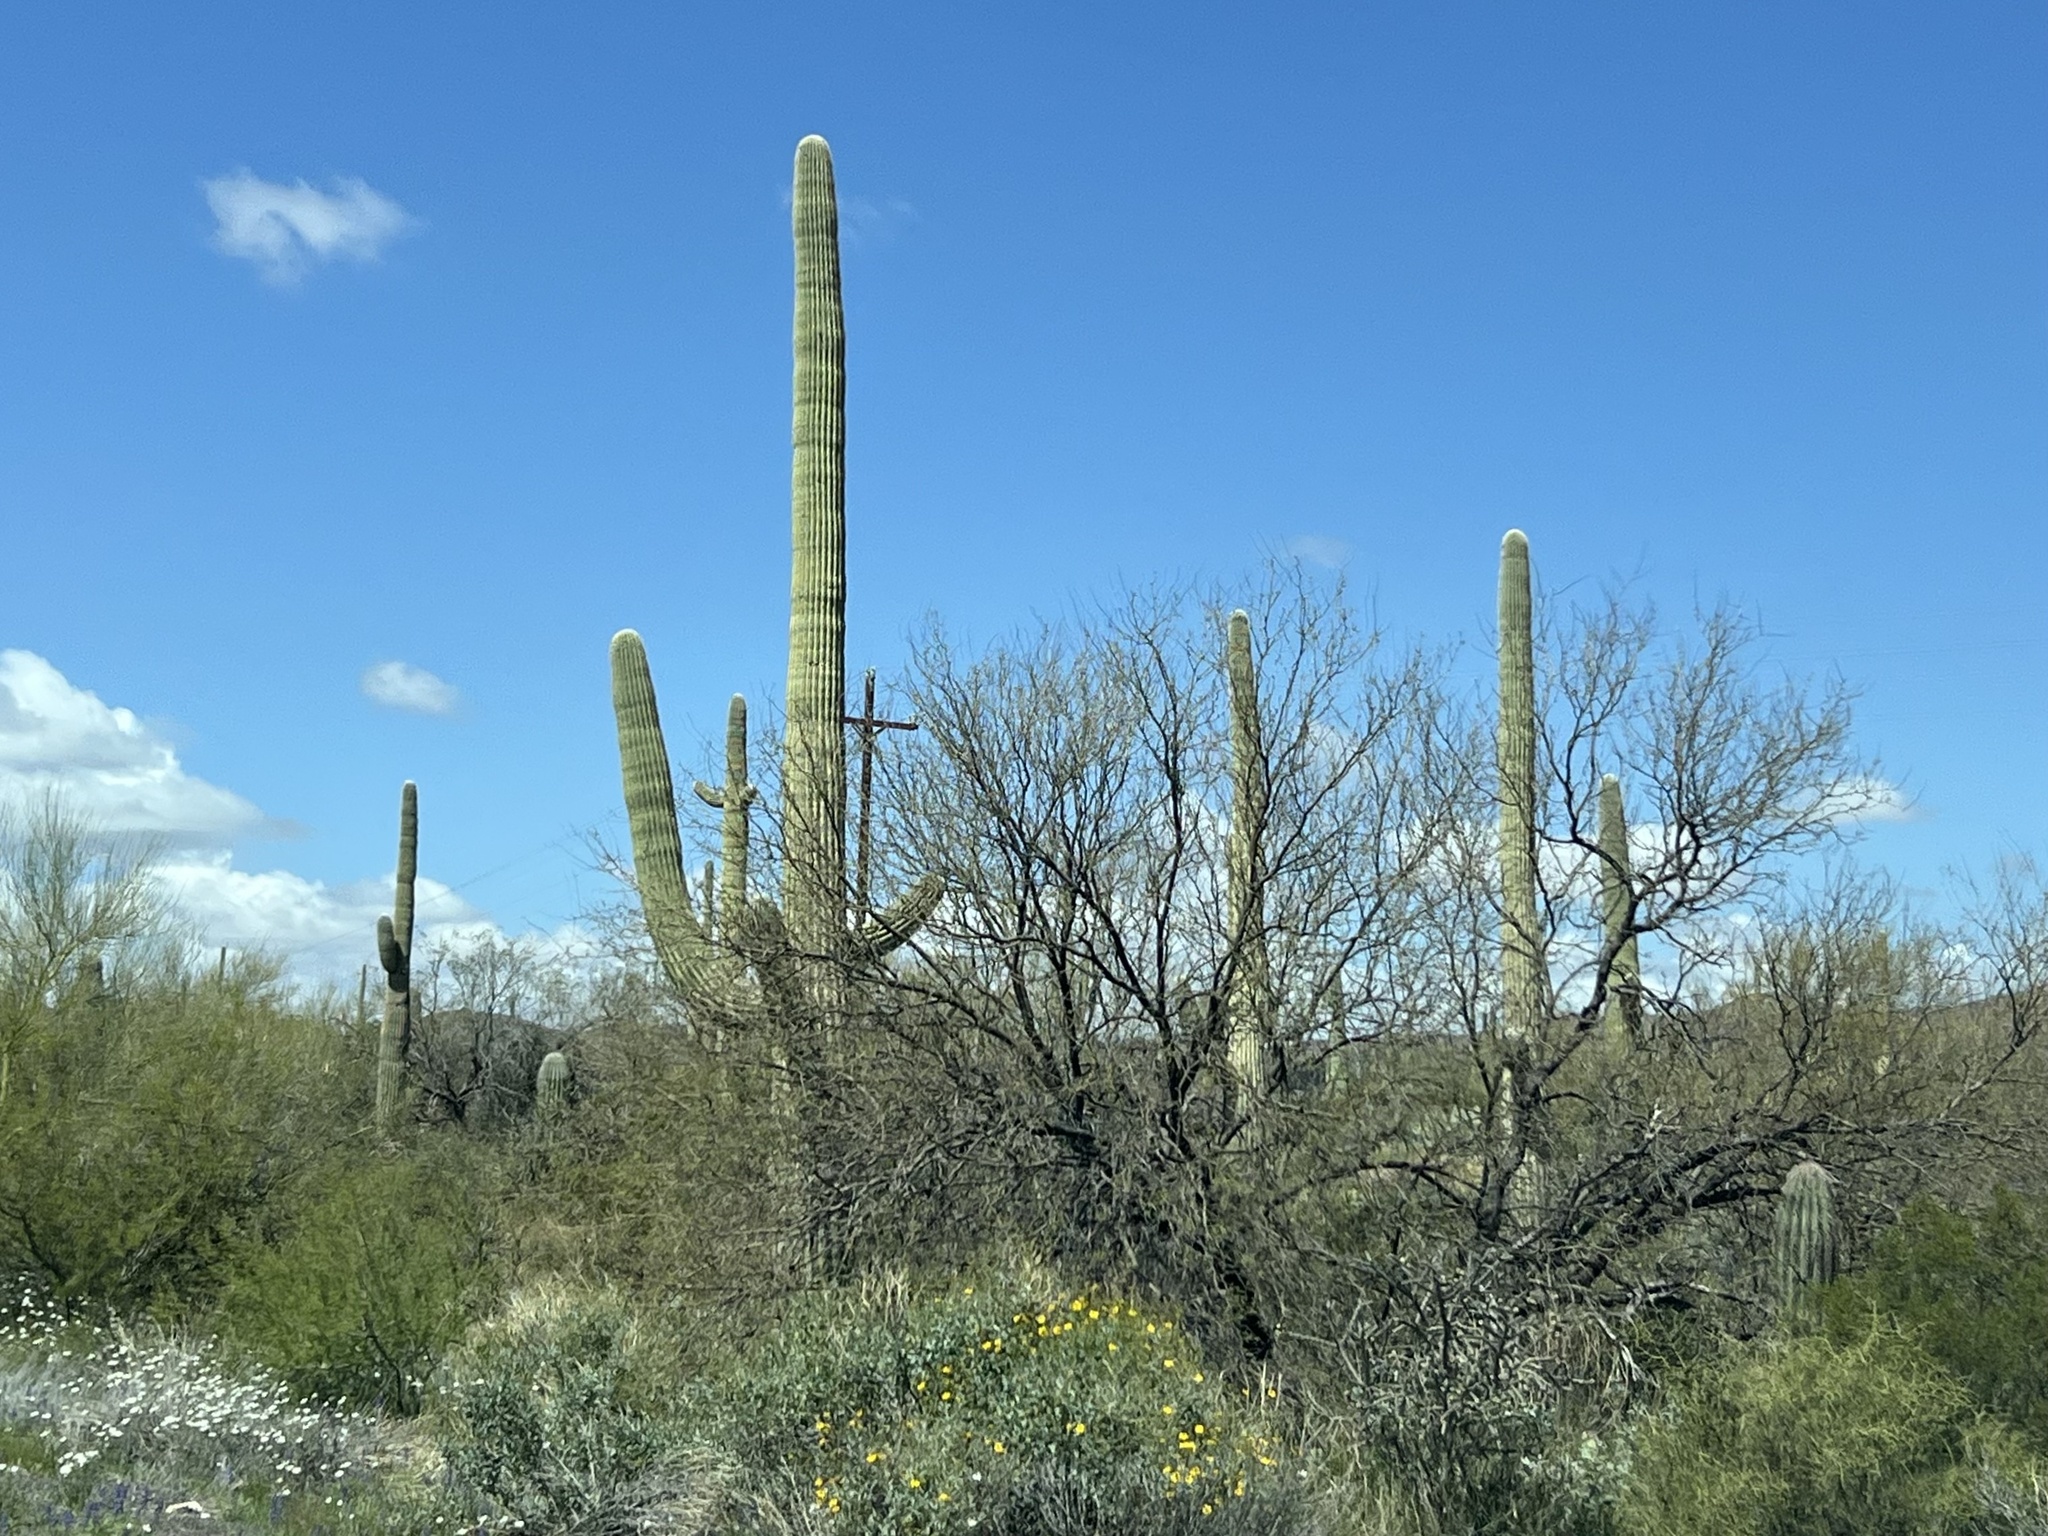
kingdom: Plantae
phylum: Tracheophyta
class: Magnoliopsida
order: Caryophyllales
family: Cactaceae
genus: Carnegiea
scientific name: Carnegiea gigantea
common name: Saguaro
